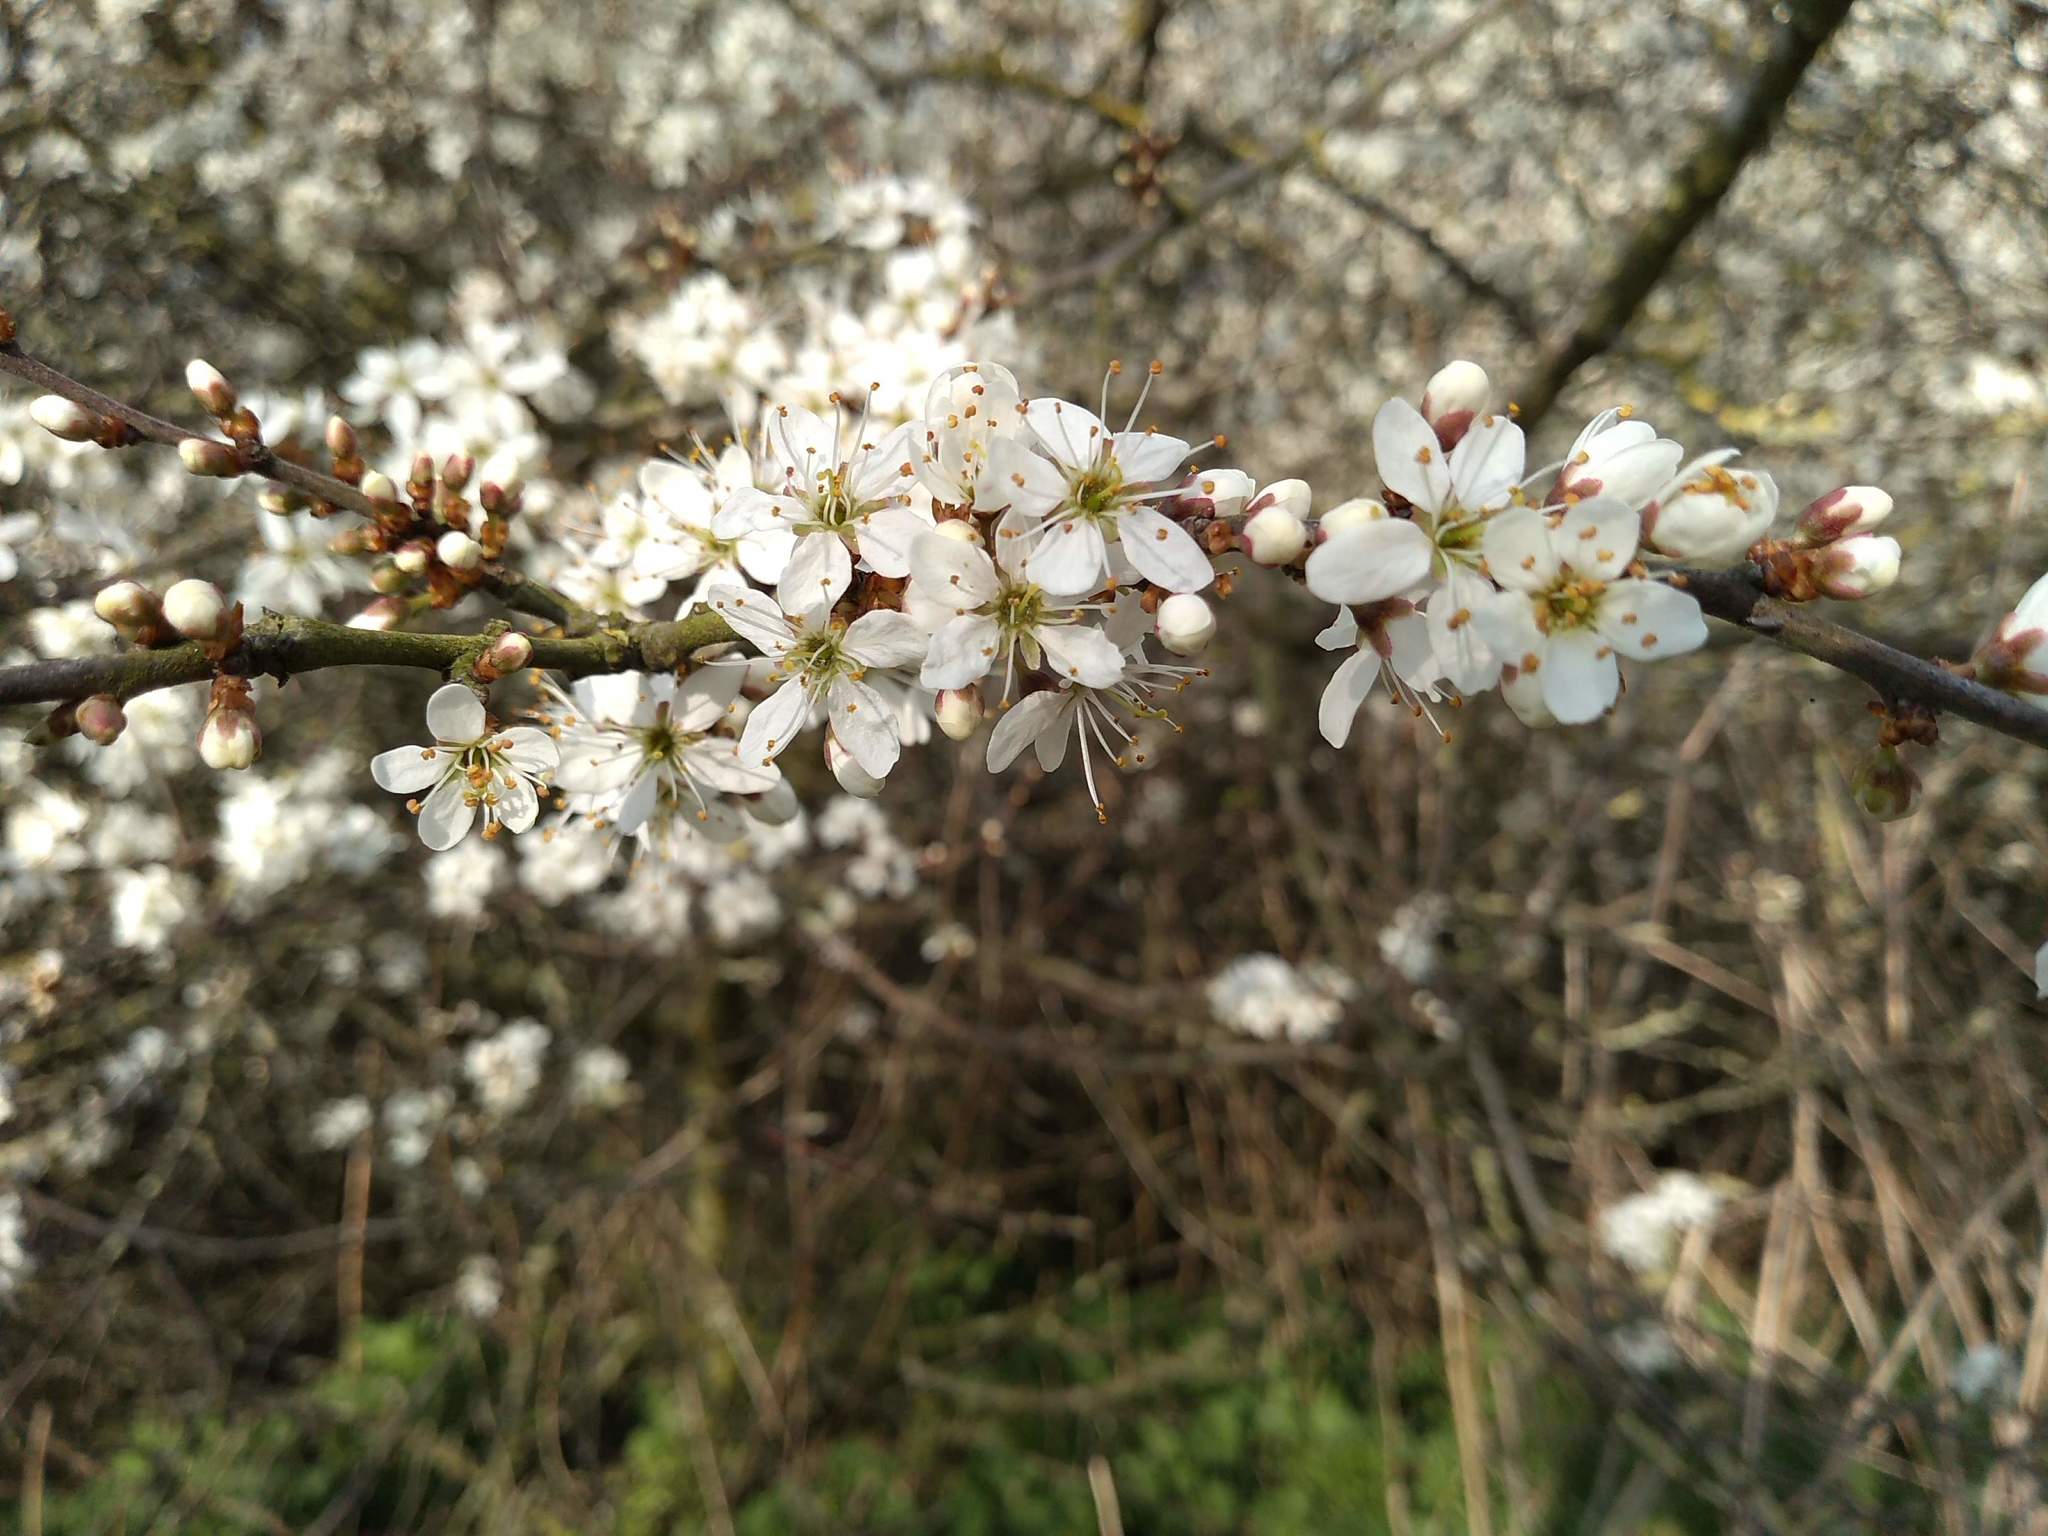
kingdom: Plantae
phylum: Tracheophyta
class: Magnoliopsida
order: Rosales
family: Rosaceae
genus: Prunus
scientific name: Prunus spinosa
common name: Blackthorn
